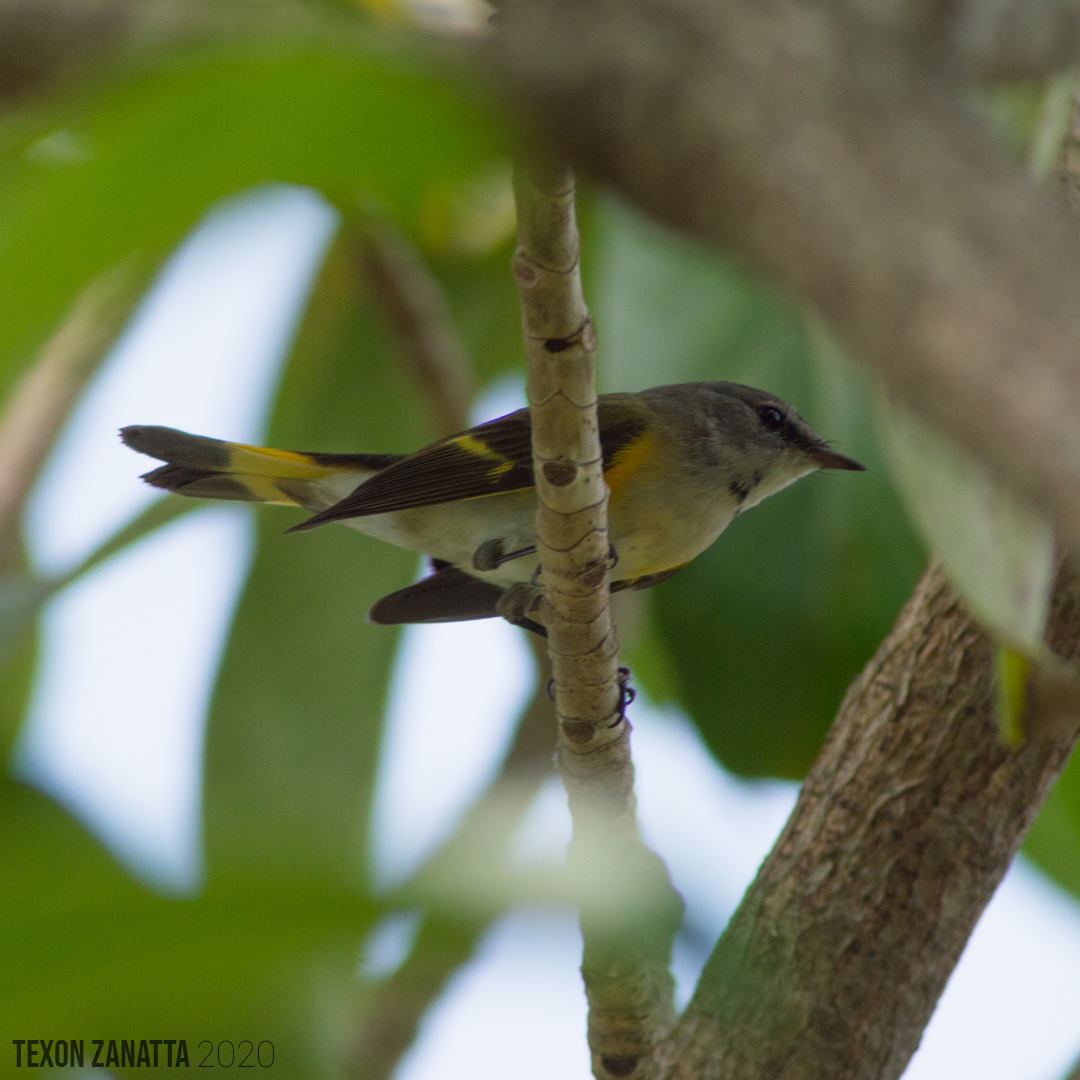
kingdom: Animalia
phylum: Chordata
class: Aves
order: Passeriformes
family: Parulidae
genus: Setophaga
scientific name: Setophaga ruticilla
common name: American redstart
